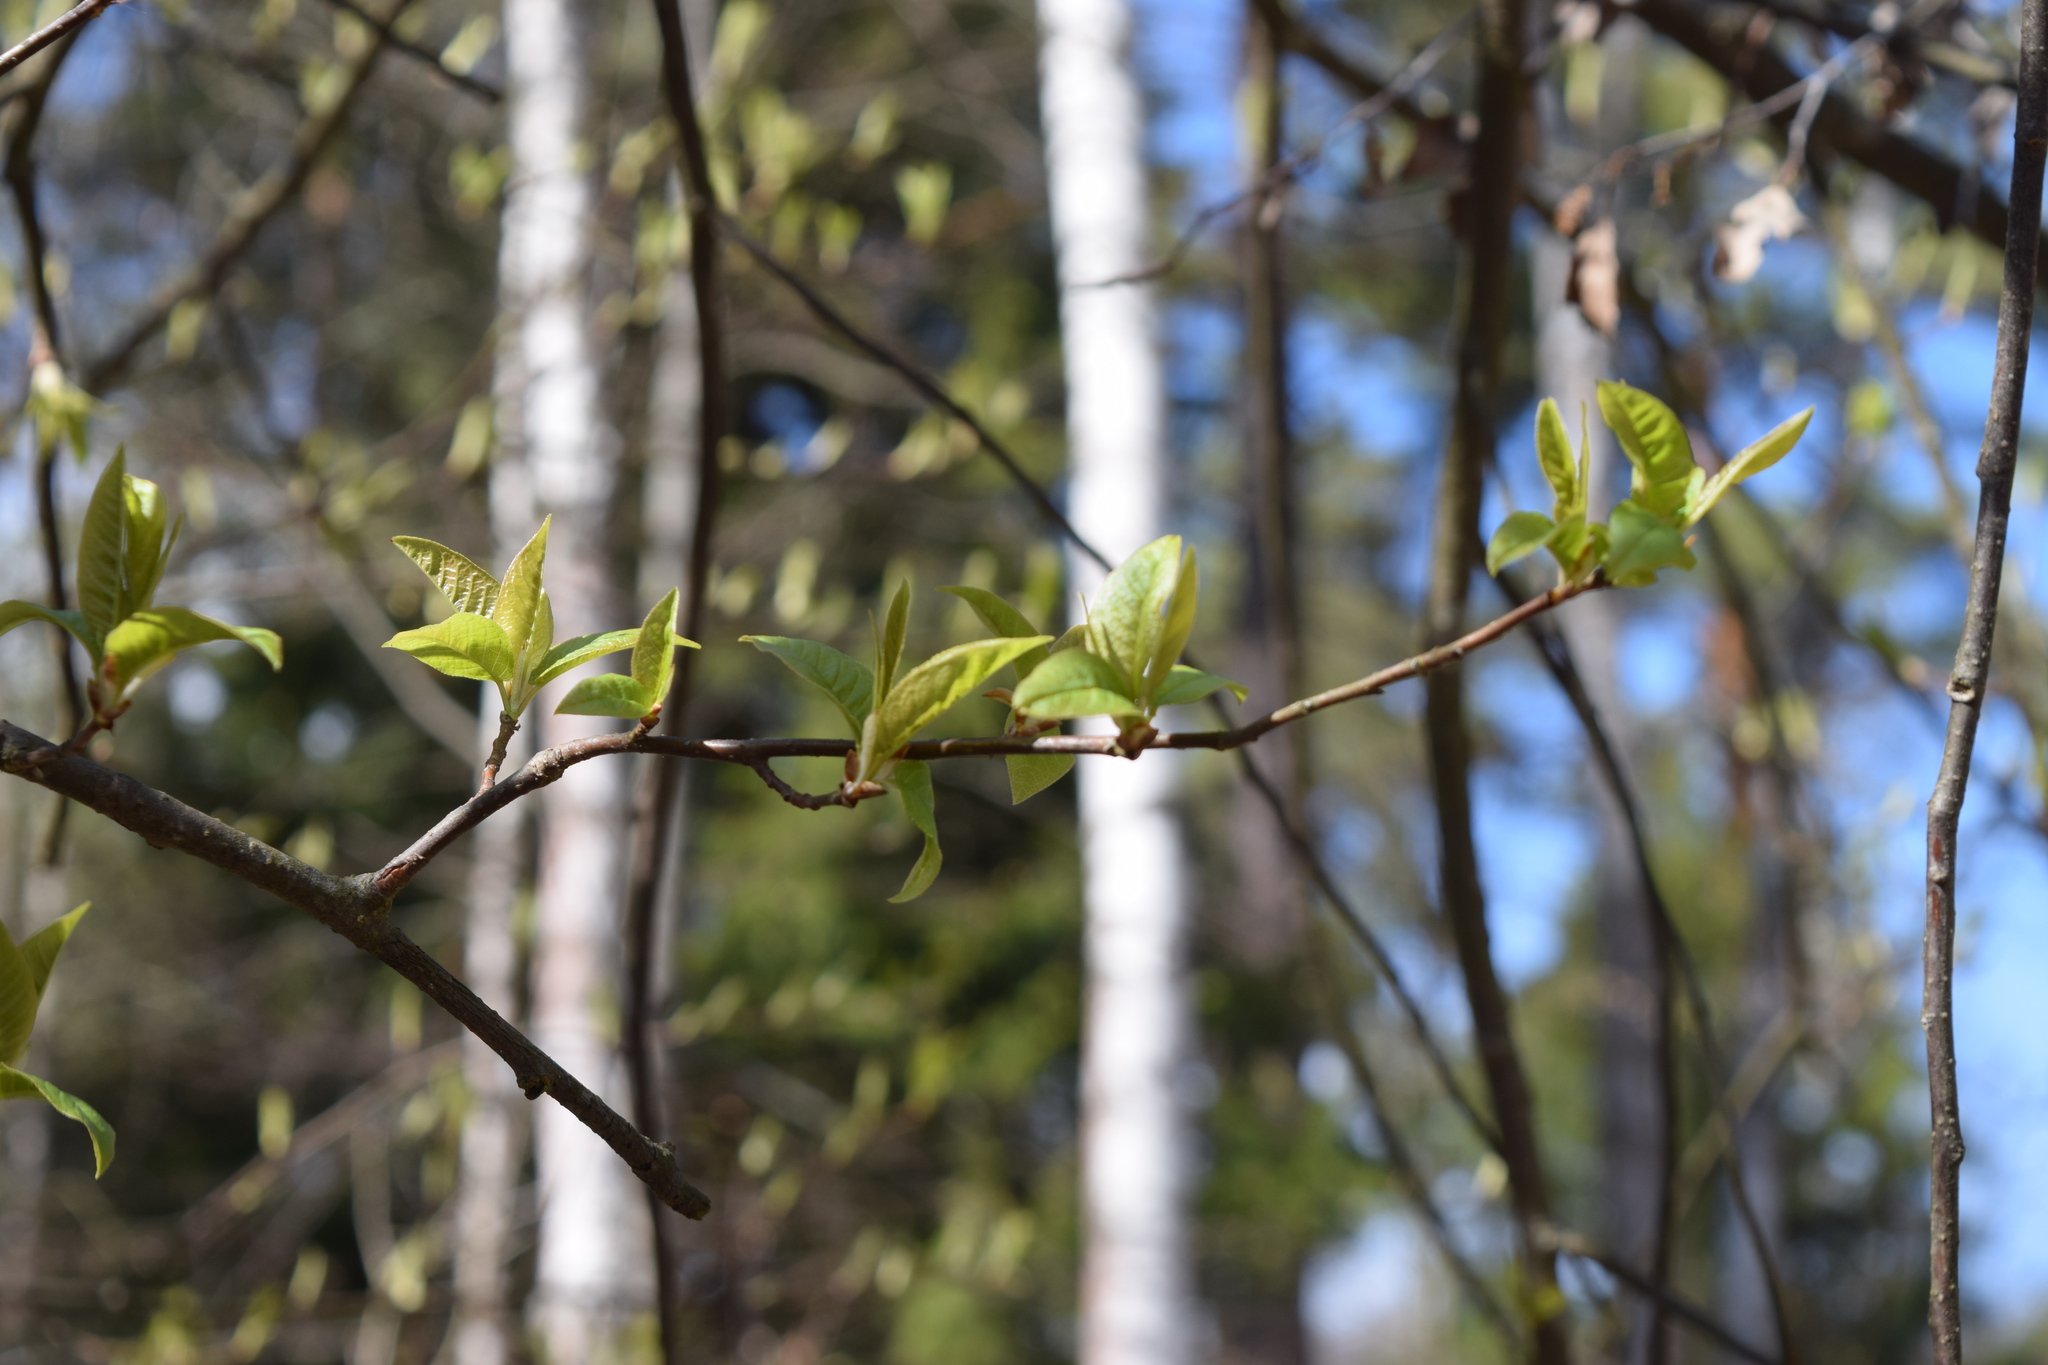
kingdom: Plantae
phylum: Tracheophyta
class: Magnoliopsida
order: Rosales
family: Rosaceae
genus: Prunus
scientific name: Prunus padus
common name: Bird cherry
